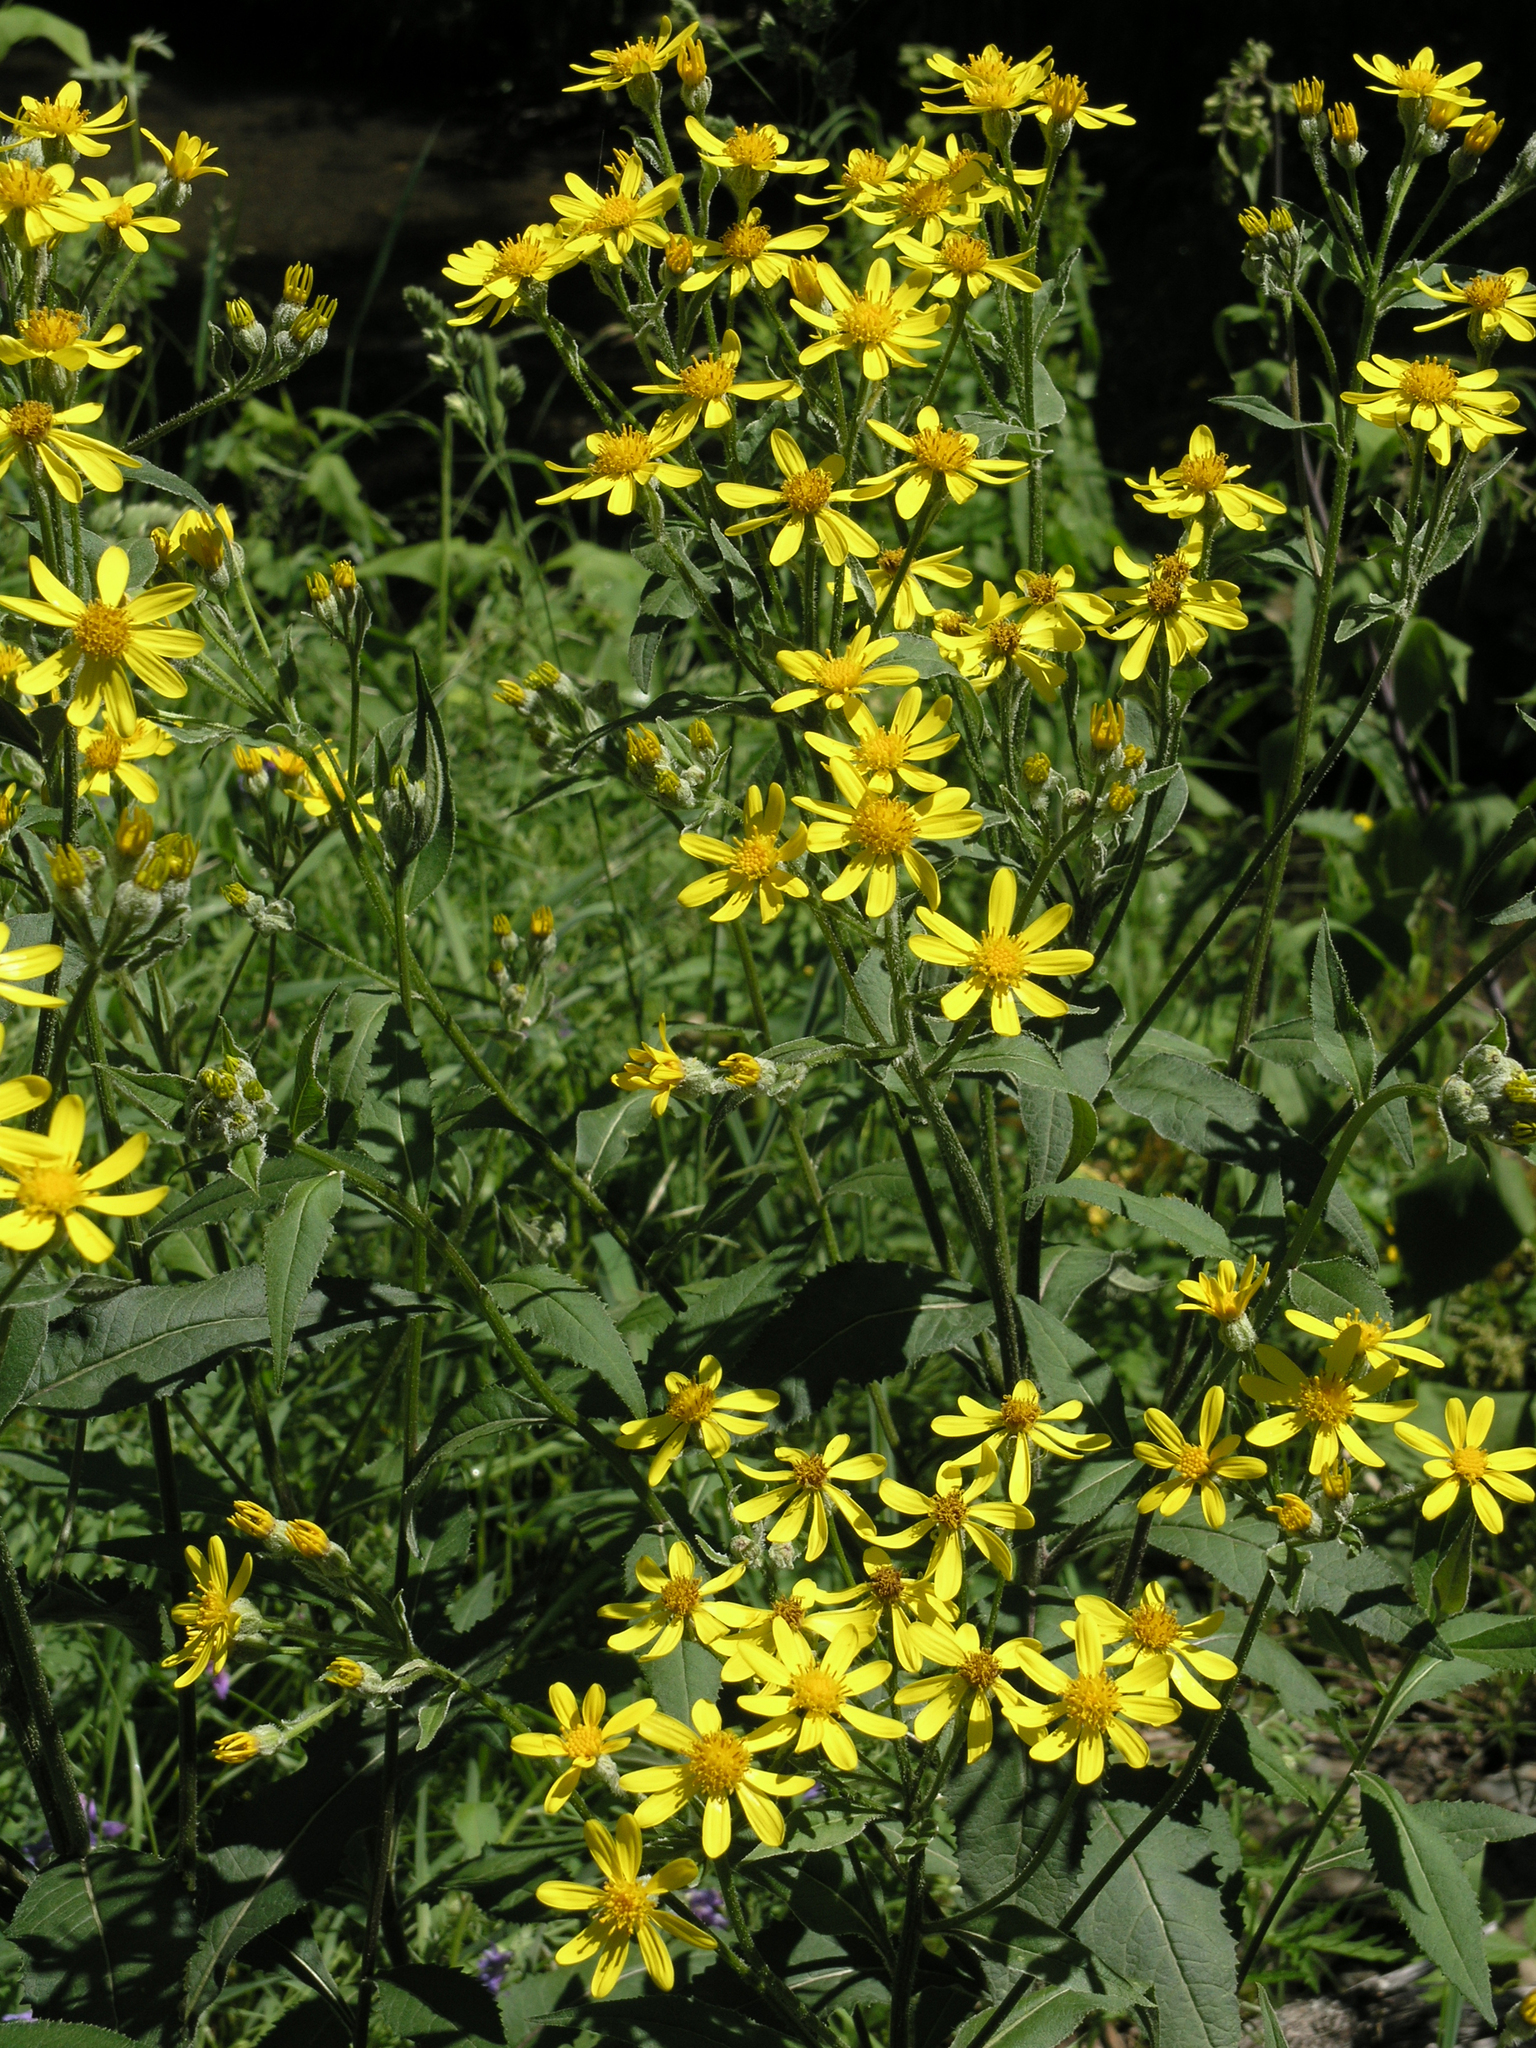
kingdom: Plantae
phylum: Tracheophyta
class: Magnoliopsida
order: Asterales
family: Asteraceae
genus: Senecio
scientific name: Senecio nemorensis
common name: Alpine ragwort
